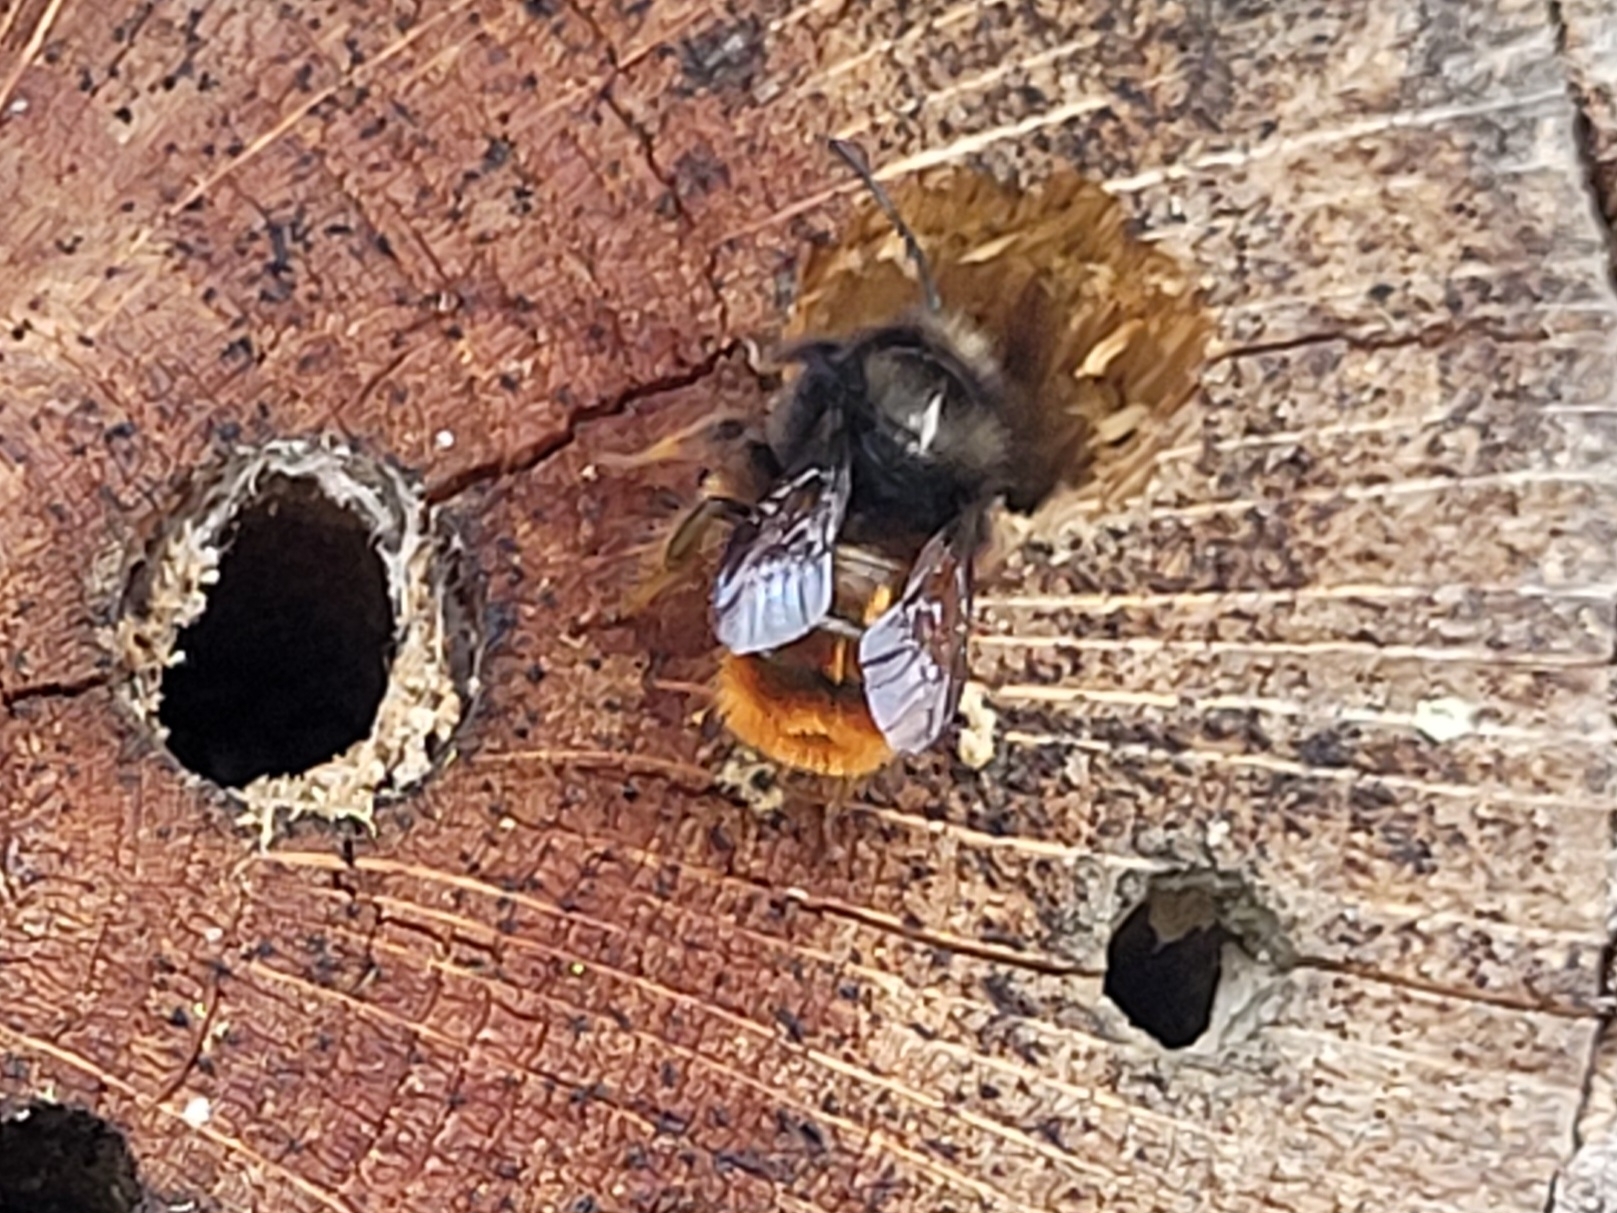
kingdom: Animalia
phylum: Arthropoda
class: Insecta
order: Hymenoptera
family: Megachilidae
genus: Osmia
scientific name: Osmia cornuta
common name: Mason bee
